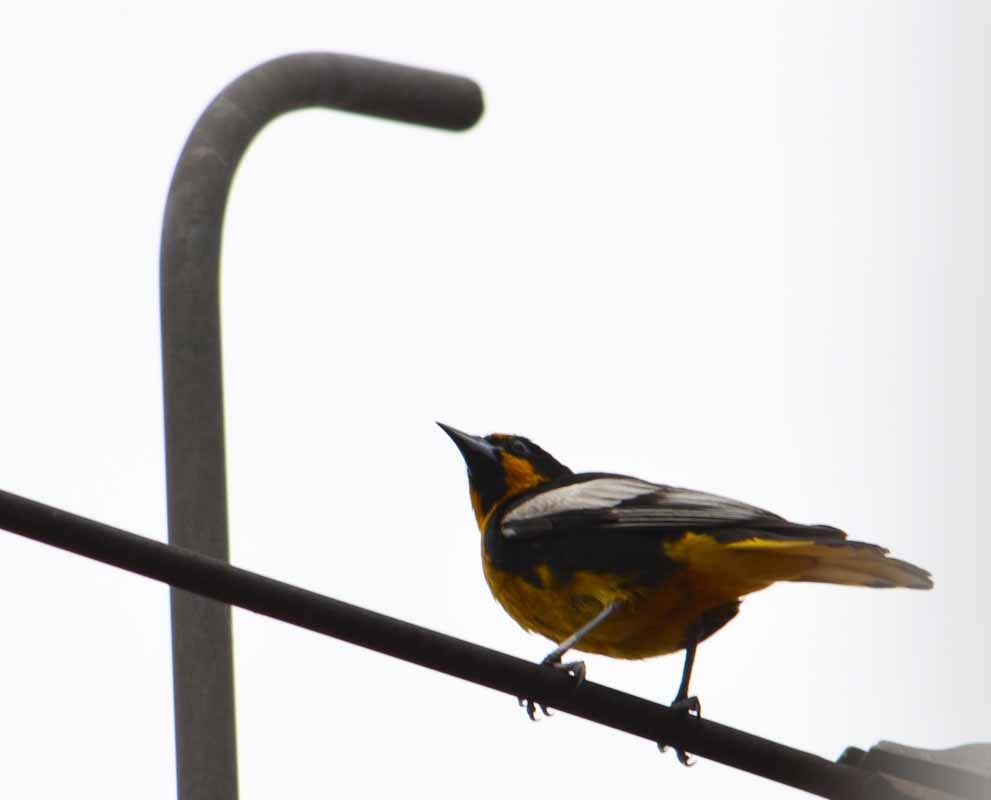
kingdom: Animalia
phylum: Chordata
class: Aves
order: Passeriformes
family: Icteridae
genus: Icterus
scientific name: Icterus abeillei
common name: Black-backed oriole
